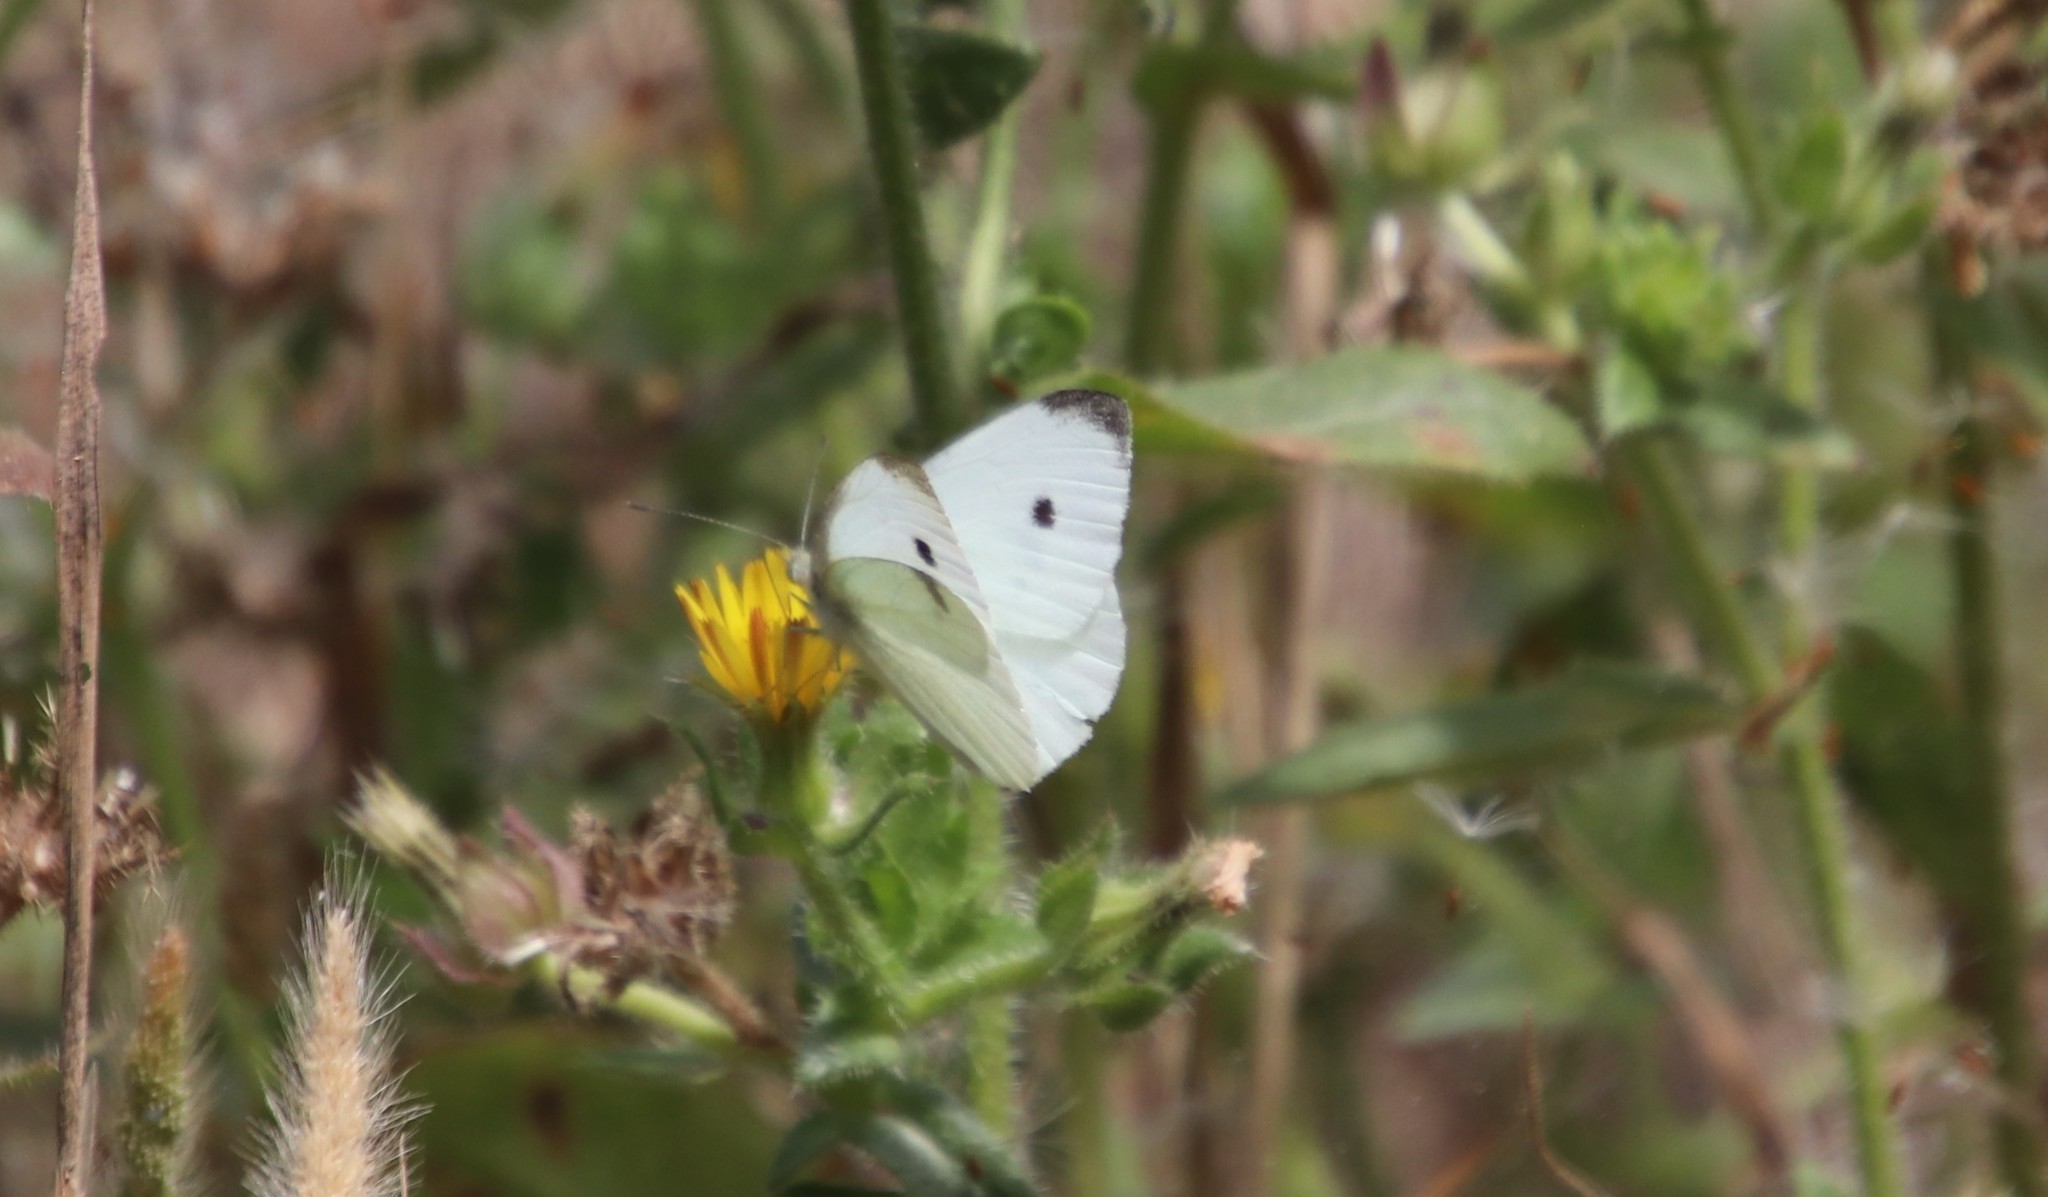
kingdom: Animalia
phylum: Arthropoda
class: Insecta
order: Lepidoptera
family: Pieridae
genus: Pieris
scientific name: Pieris rapae
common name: Small white
